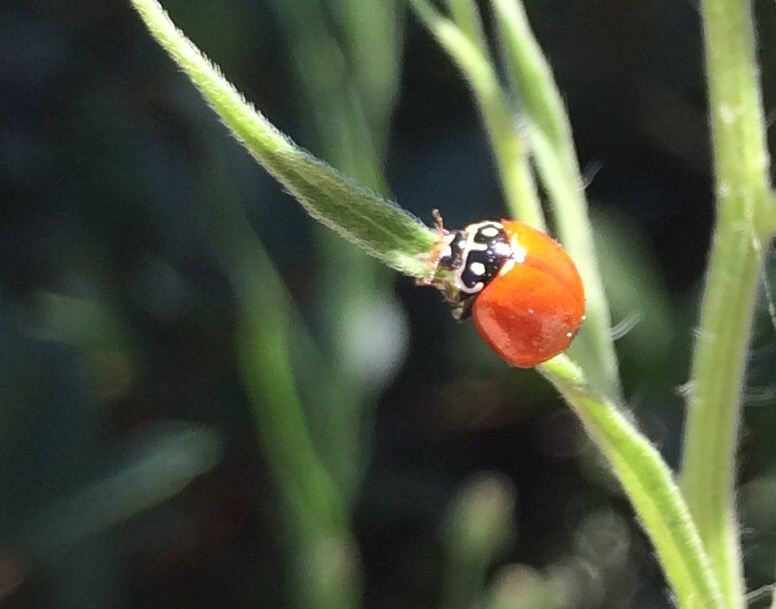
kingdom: Animalia
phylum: Arthropoda
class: Insecta
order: Coleoptera
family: Coccinellidae
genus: Cycloneda
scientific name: Cycloneda sanguinea
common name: Ladybird beetle
